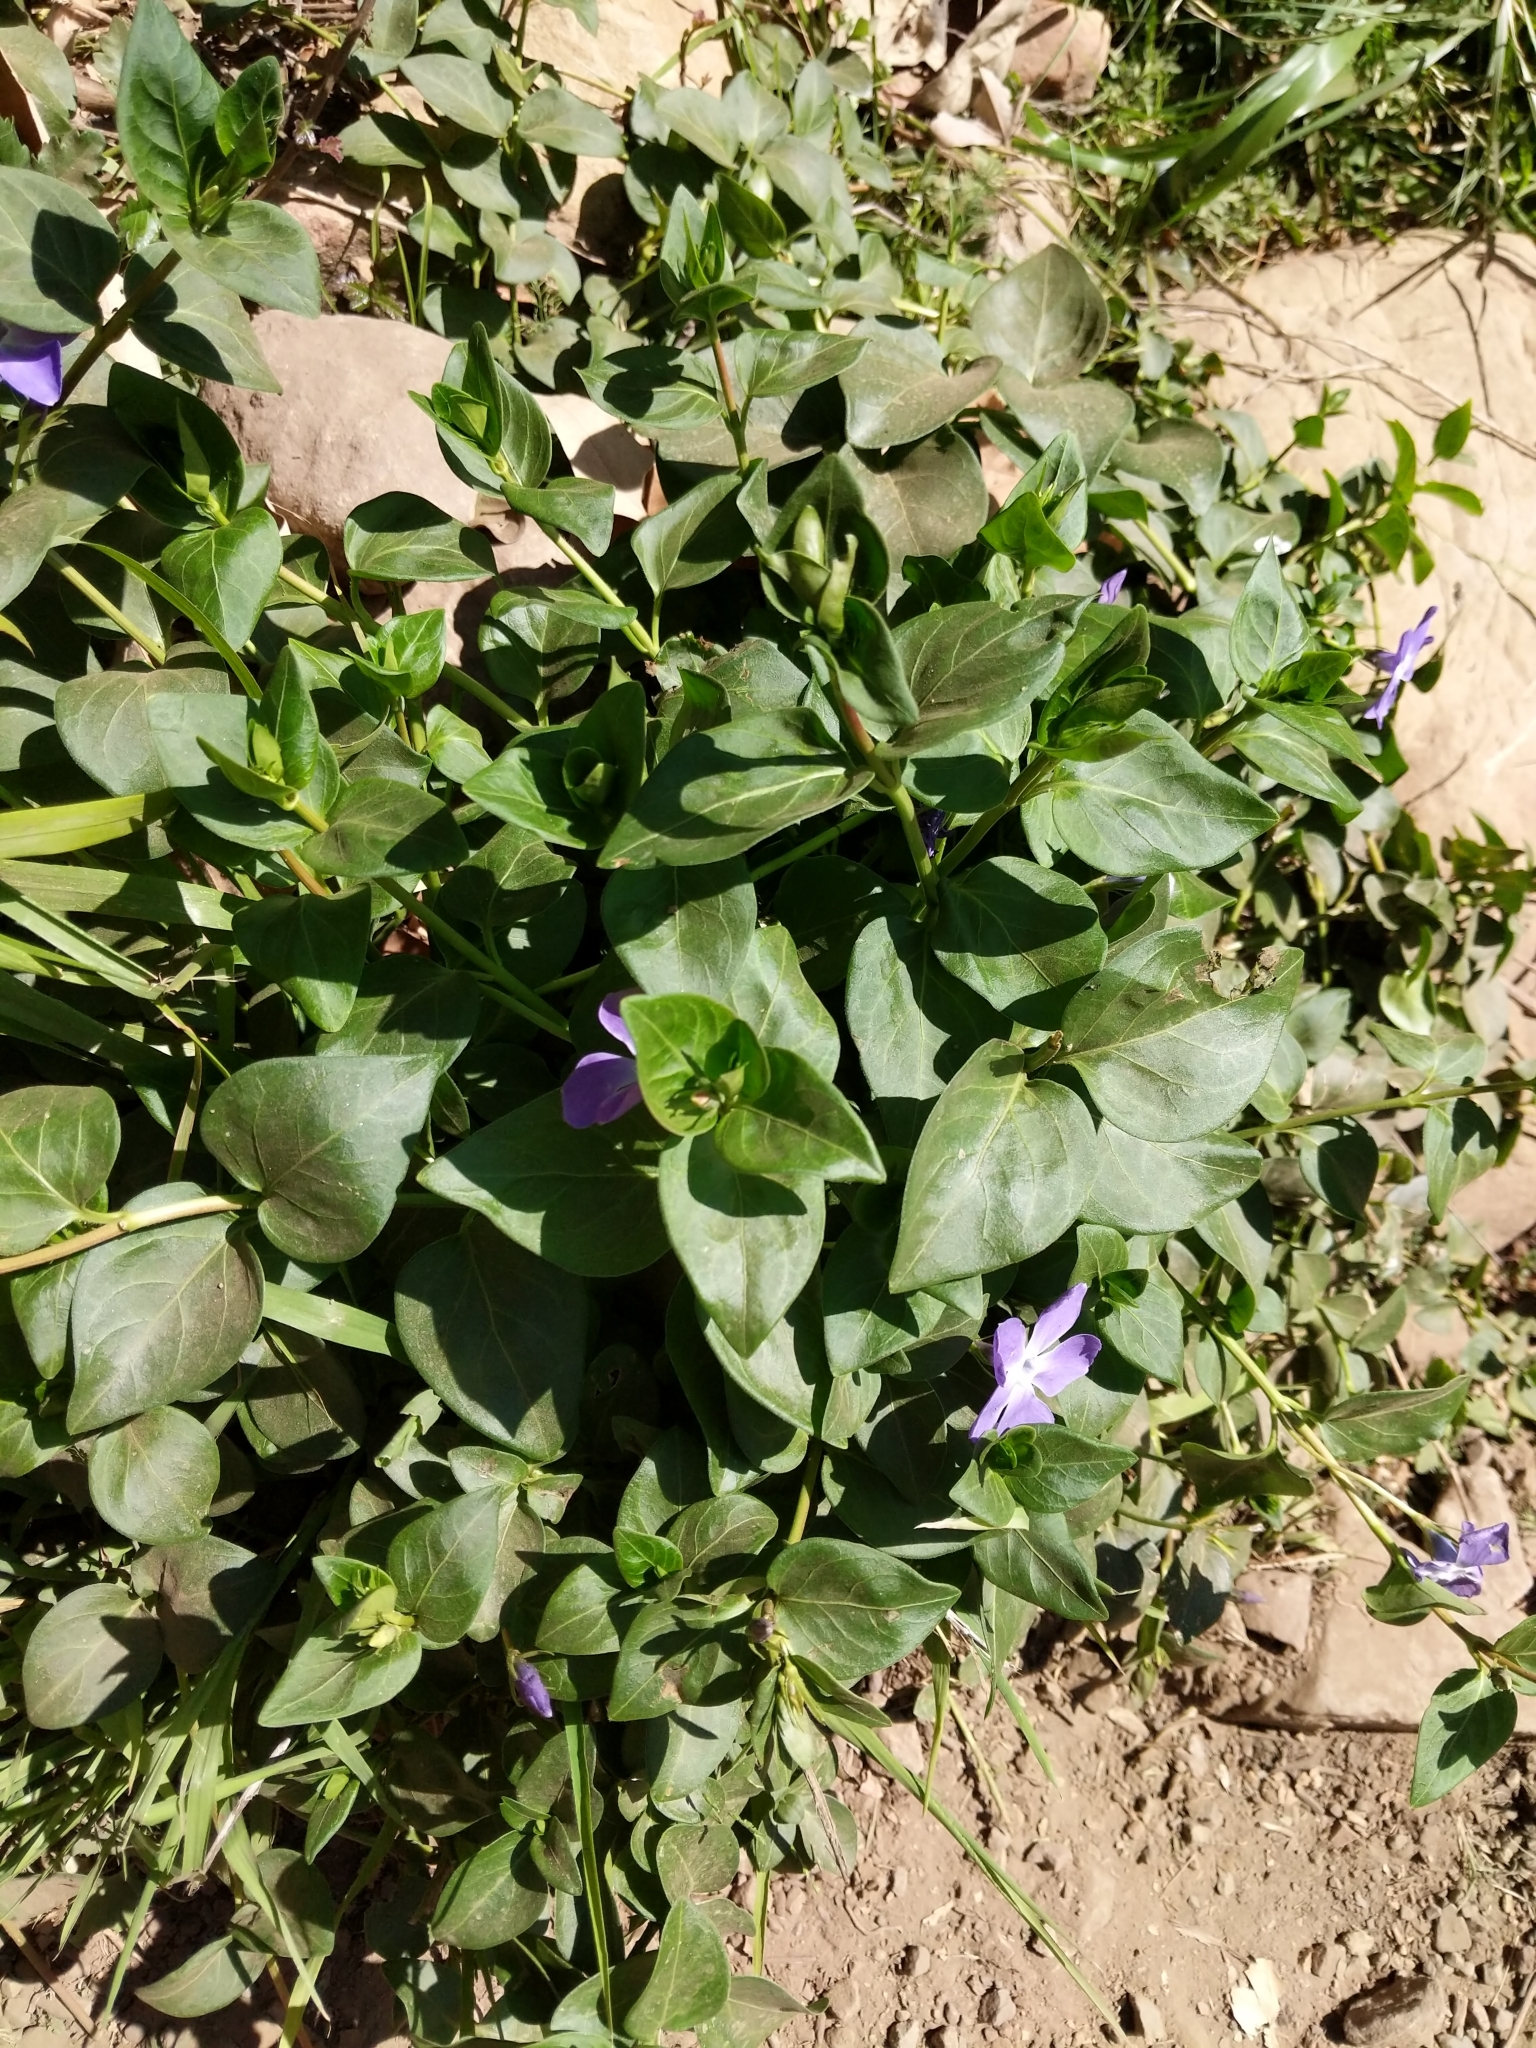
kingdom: Plantae
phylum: Tracheophyta
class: Magnoliopsida
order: Gentianales
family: Apocynaceae
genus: Vinca
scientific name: Vinca major
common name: Greater periwinkle
